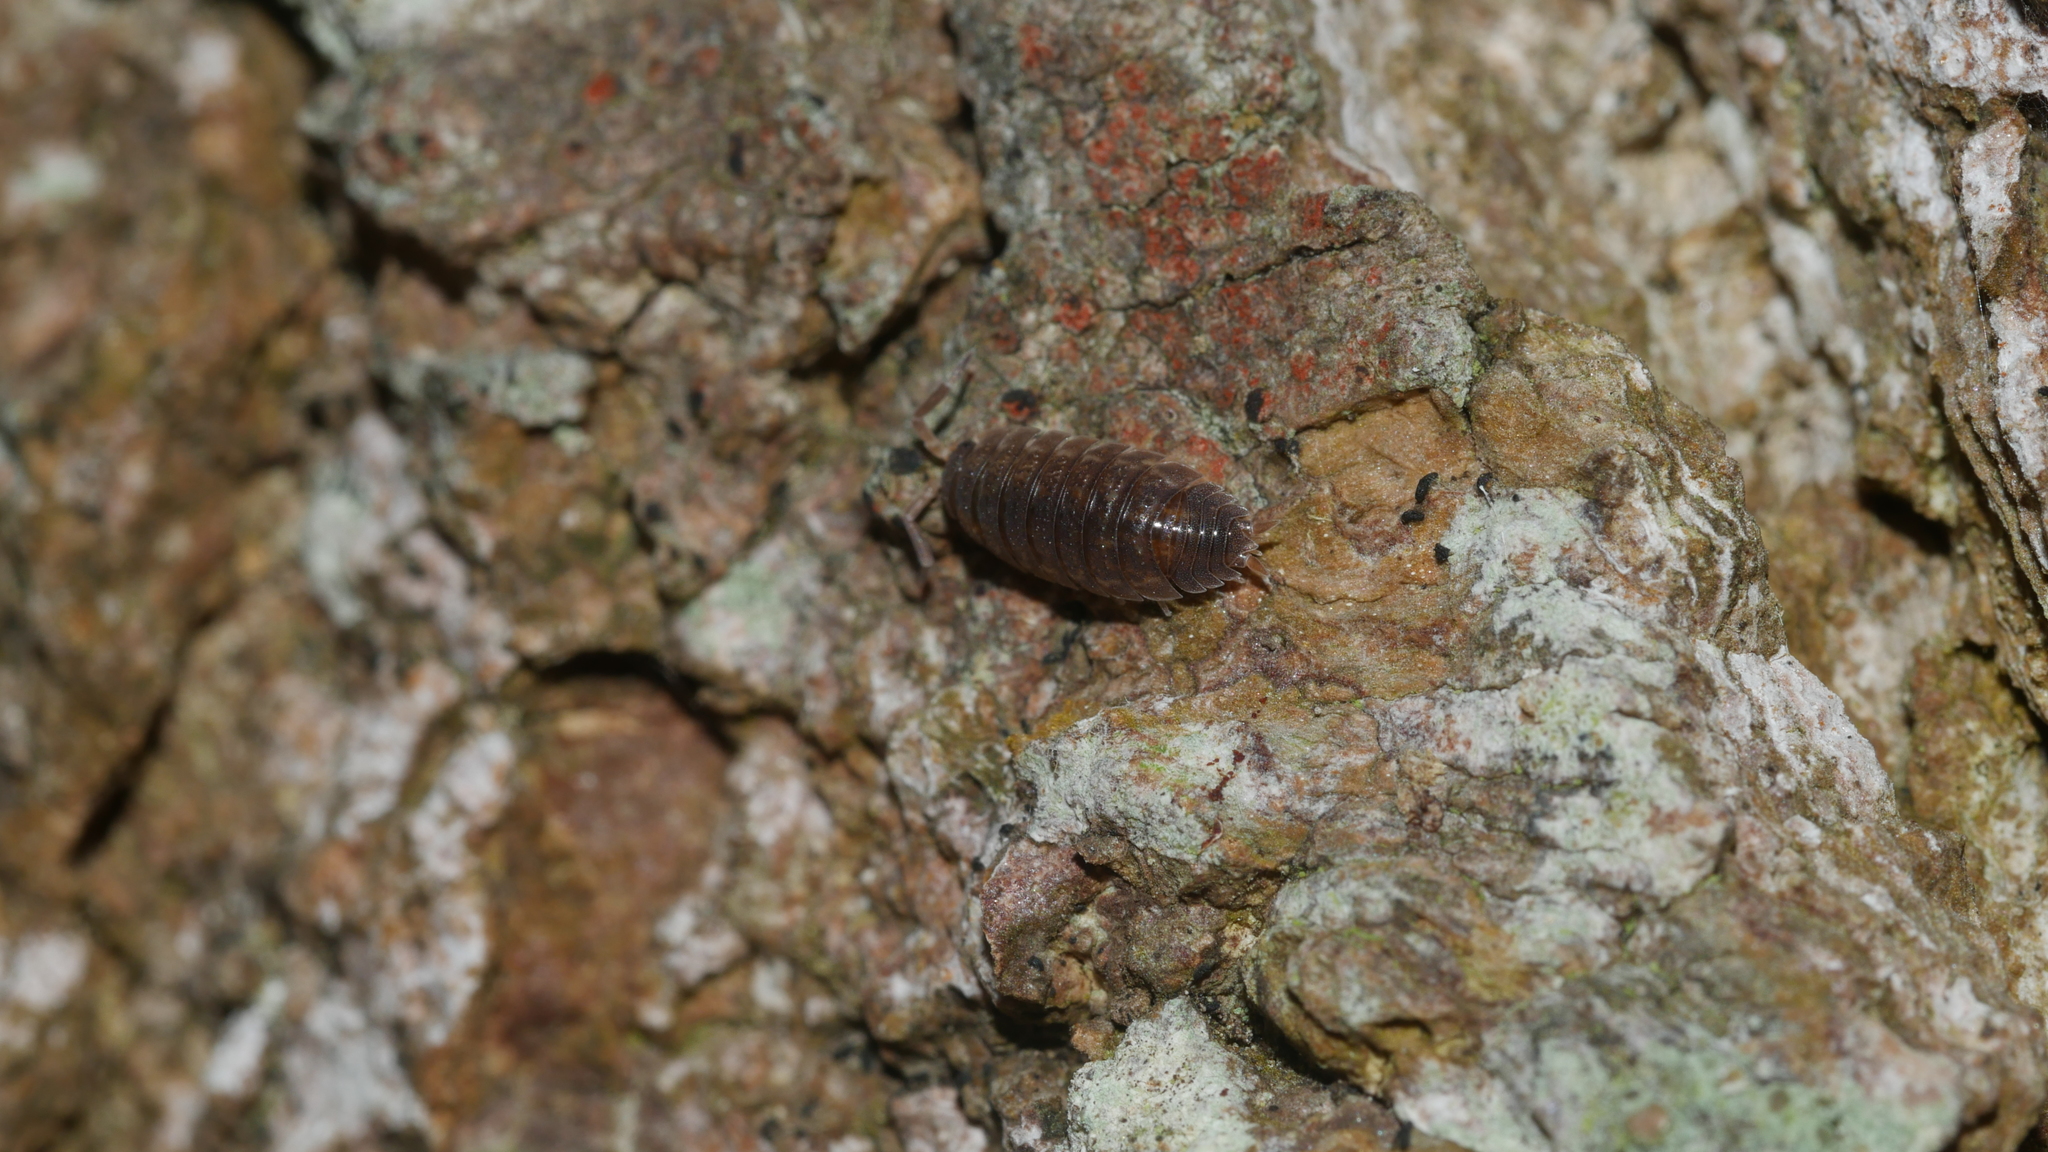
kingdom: Animalia
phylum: Arthropoda
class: Malacostraca
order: Isopoda
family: Porcellionidae
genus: Porcellio
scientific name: Porcellio scaber
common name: Common rough woodlouse
